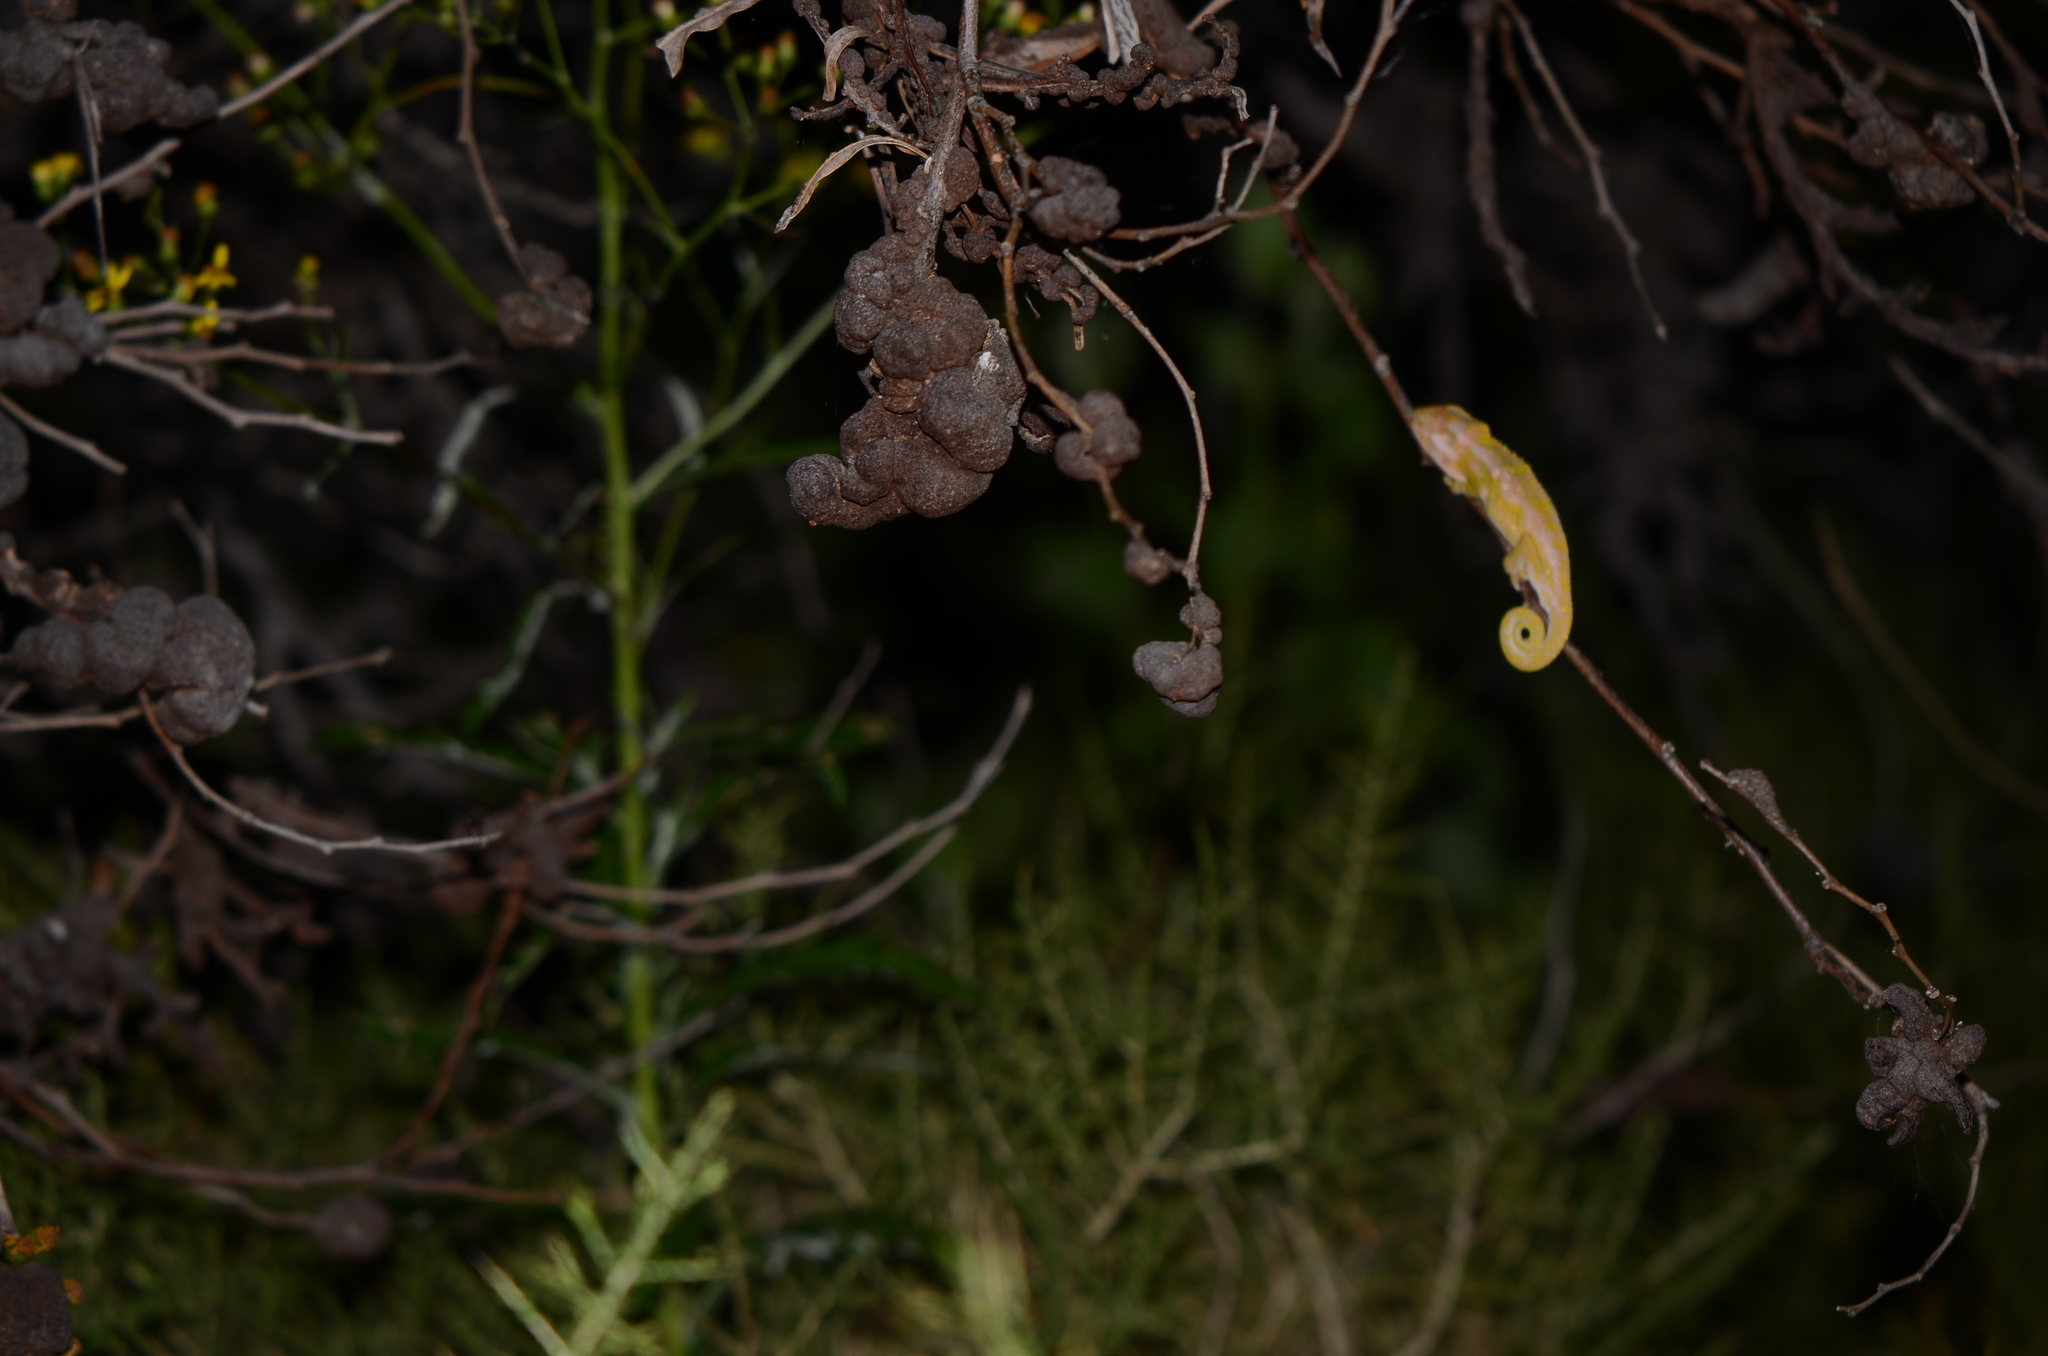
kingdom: Animalia
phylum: Chordata
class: Squamata
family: Chamaeleonidae
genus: Bradypodion
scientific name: Bradypodion pumilum
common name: Cape dwarf chameleon
